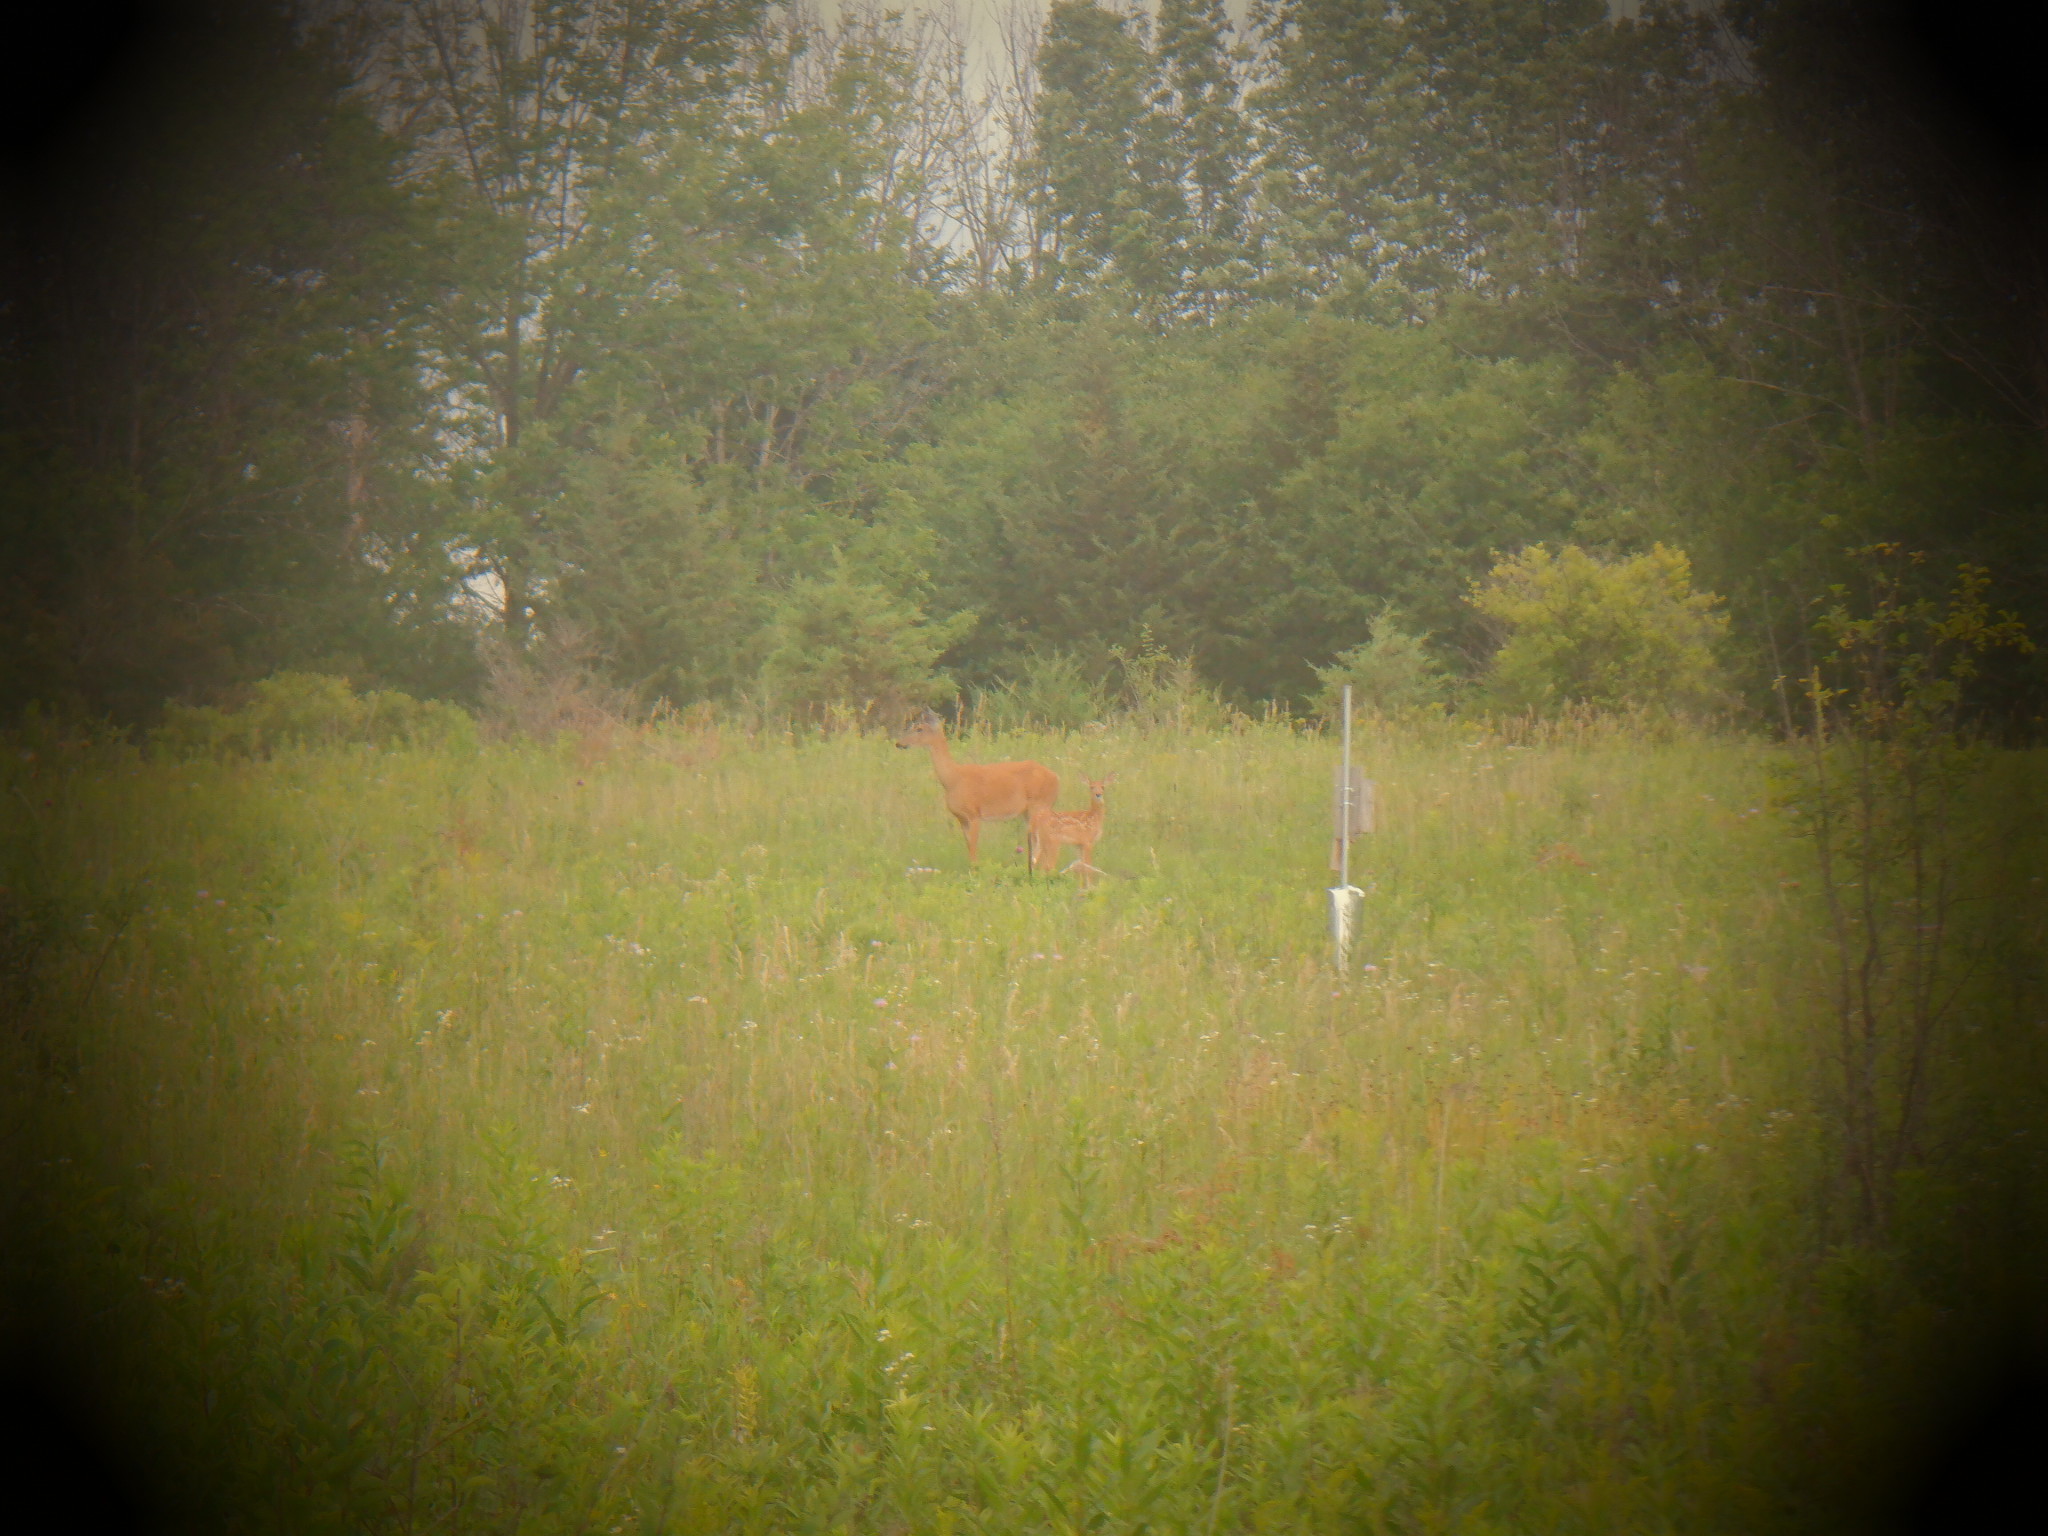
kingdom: Animalia
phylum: Chordata
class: Mammalia
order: Artiodactyla
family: Cervidae
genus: Odocoileus
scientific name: Odocoileus virginianus
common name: White-tailed deer
